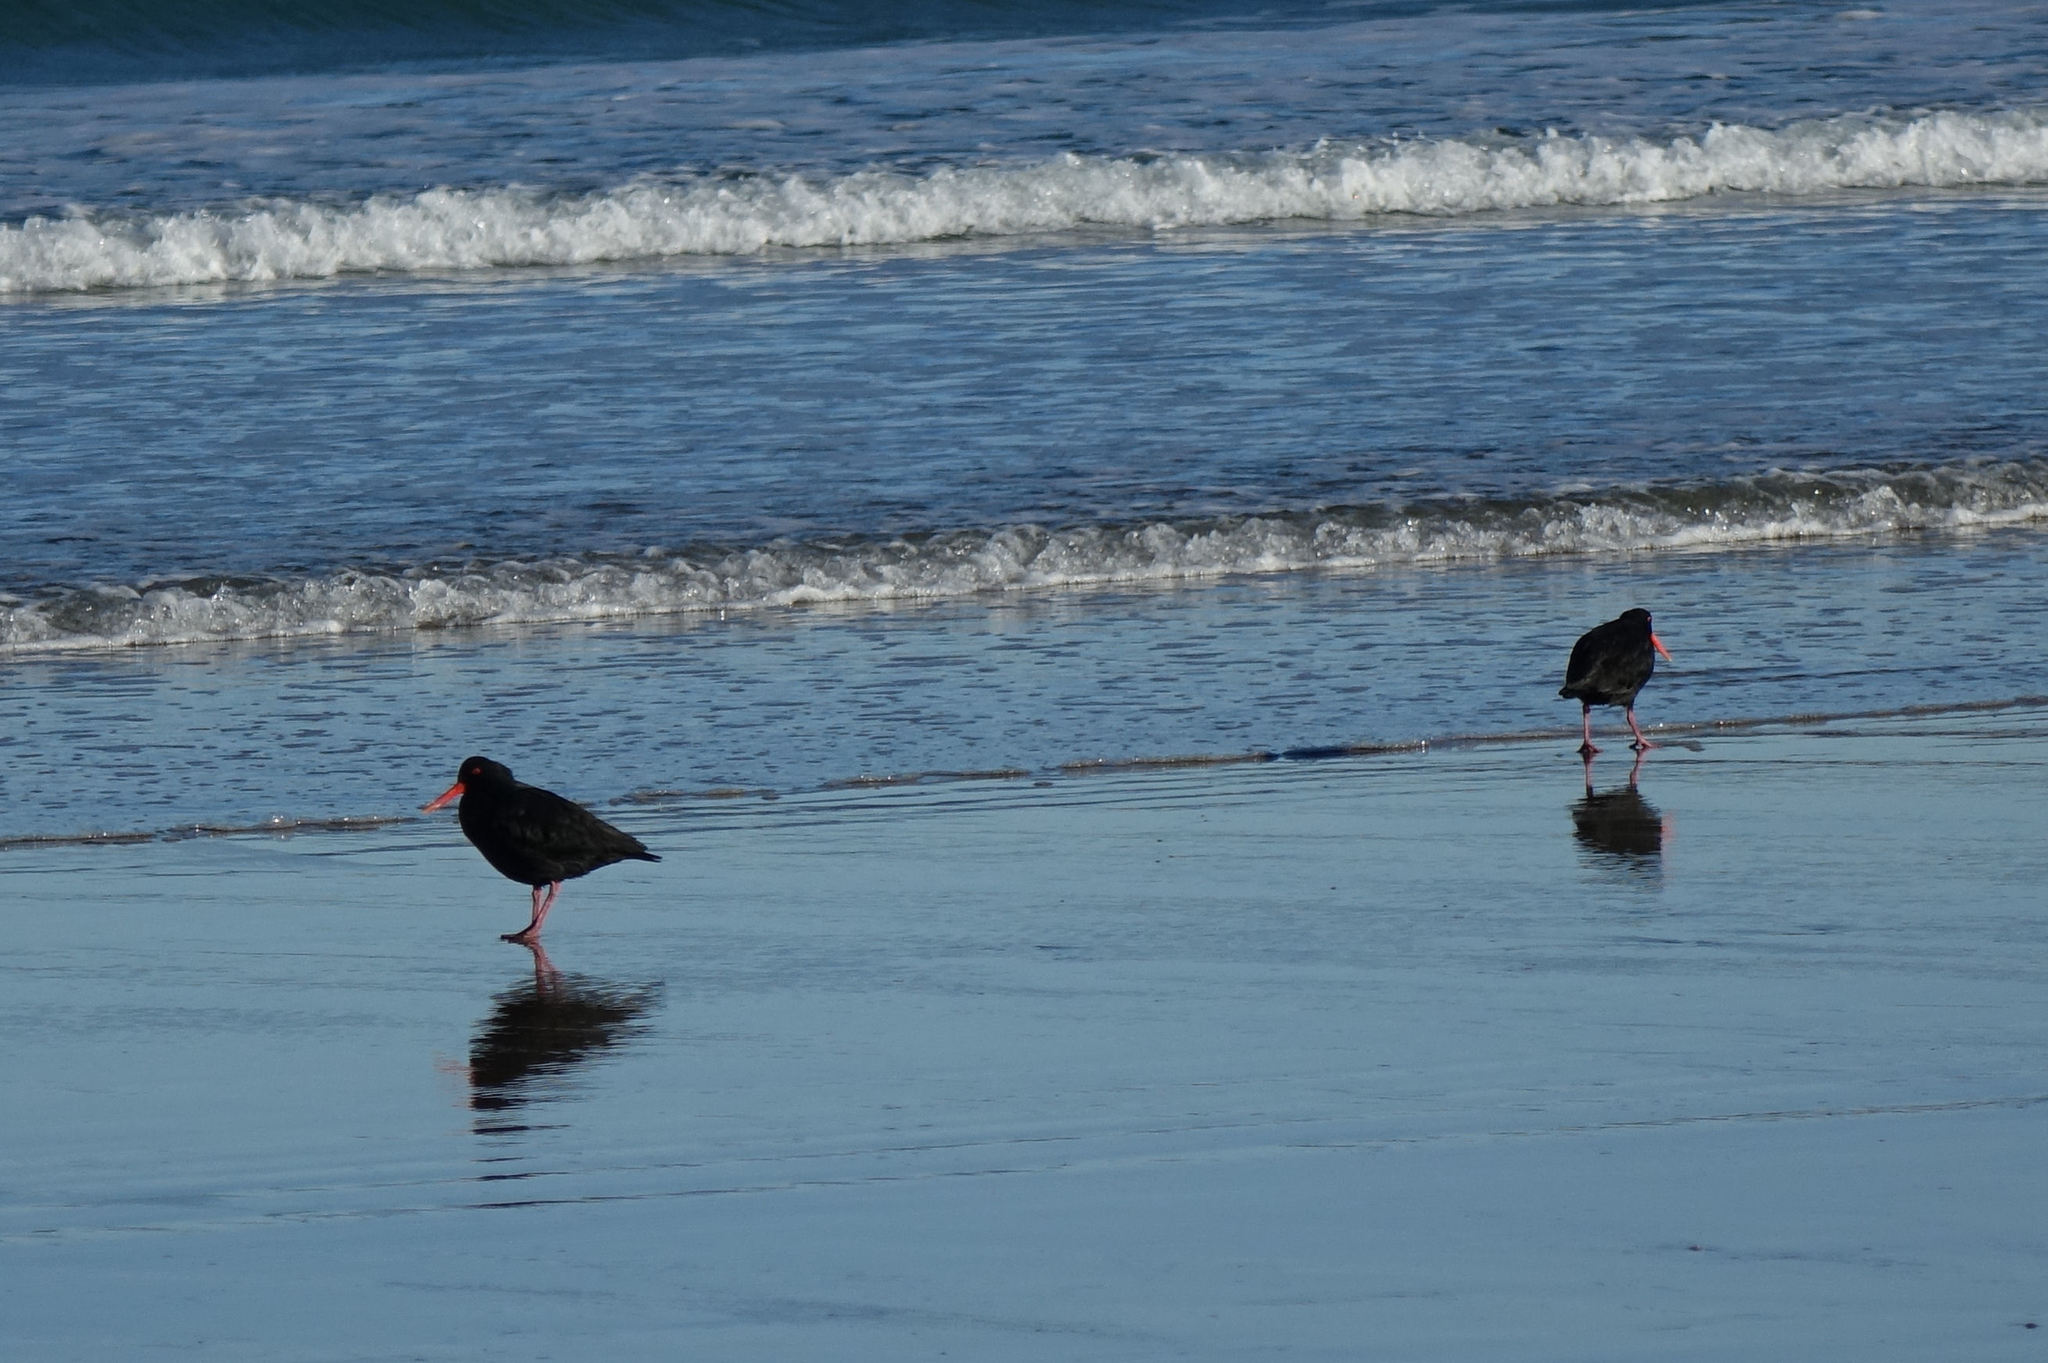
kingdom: Animalia
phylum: Chordata
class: Aves
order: Charadriiformes
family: Haematopodidae
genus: Haematopus
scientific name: Haematopus unicolor
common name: Variable oystercatcher
